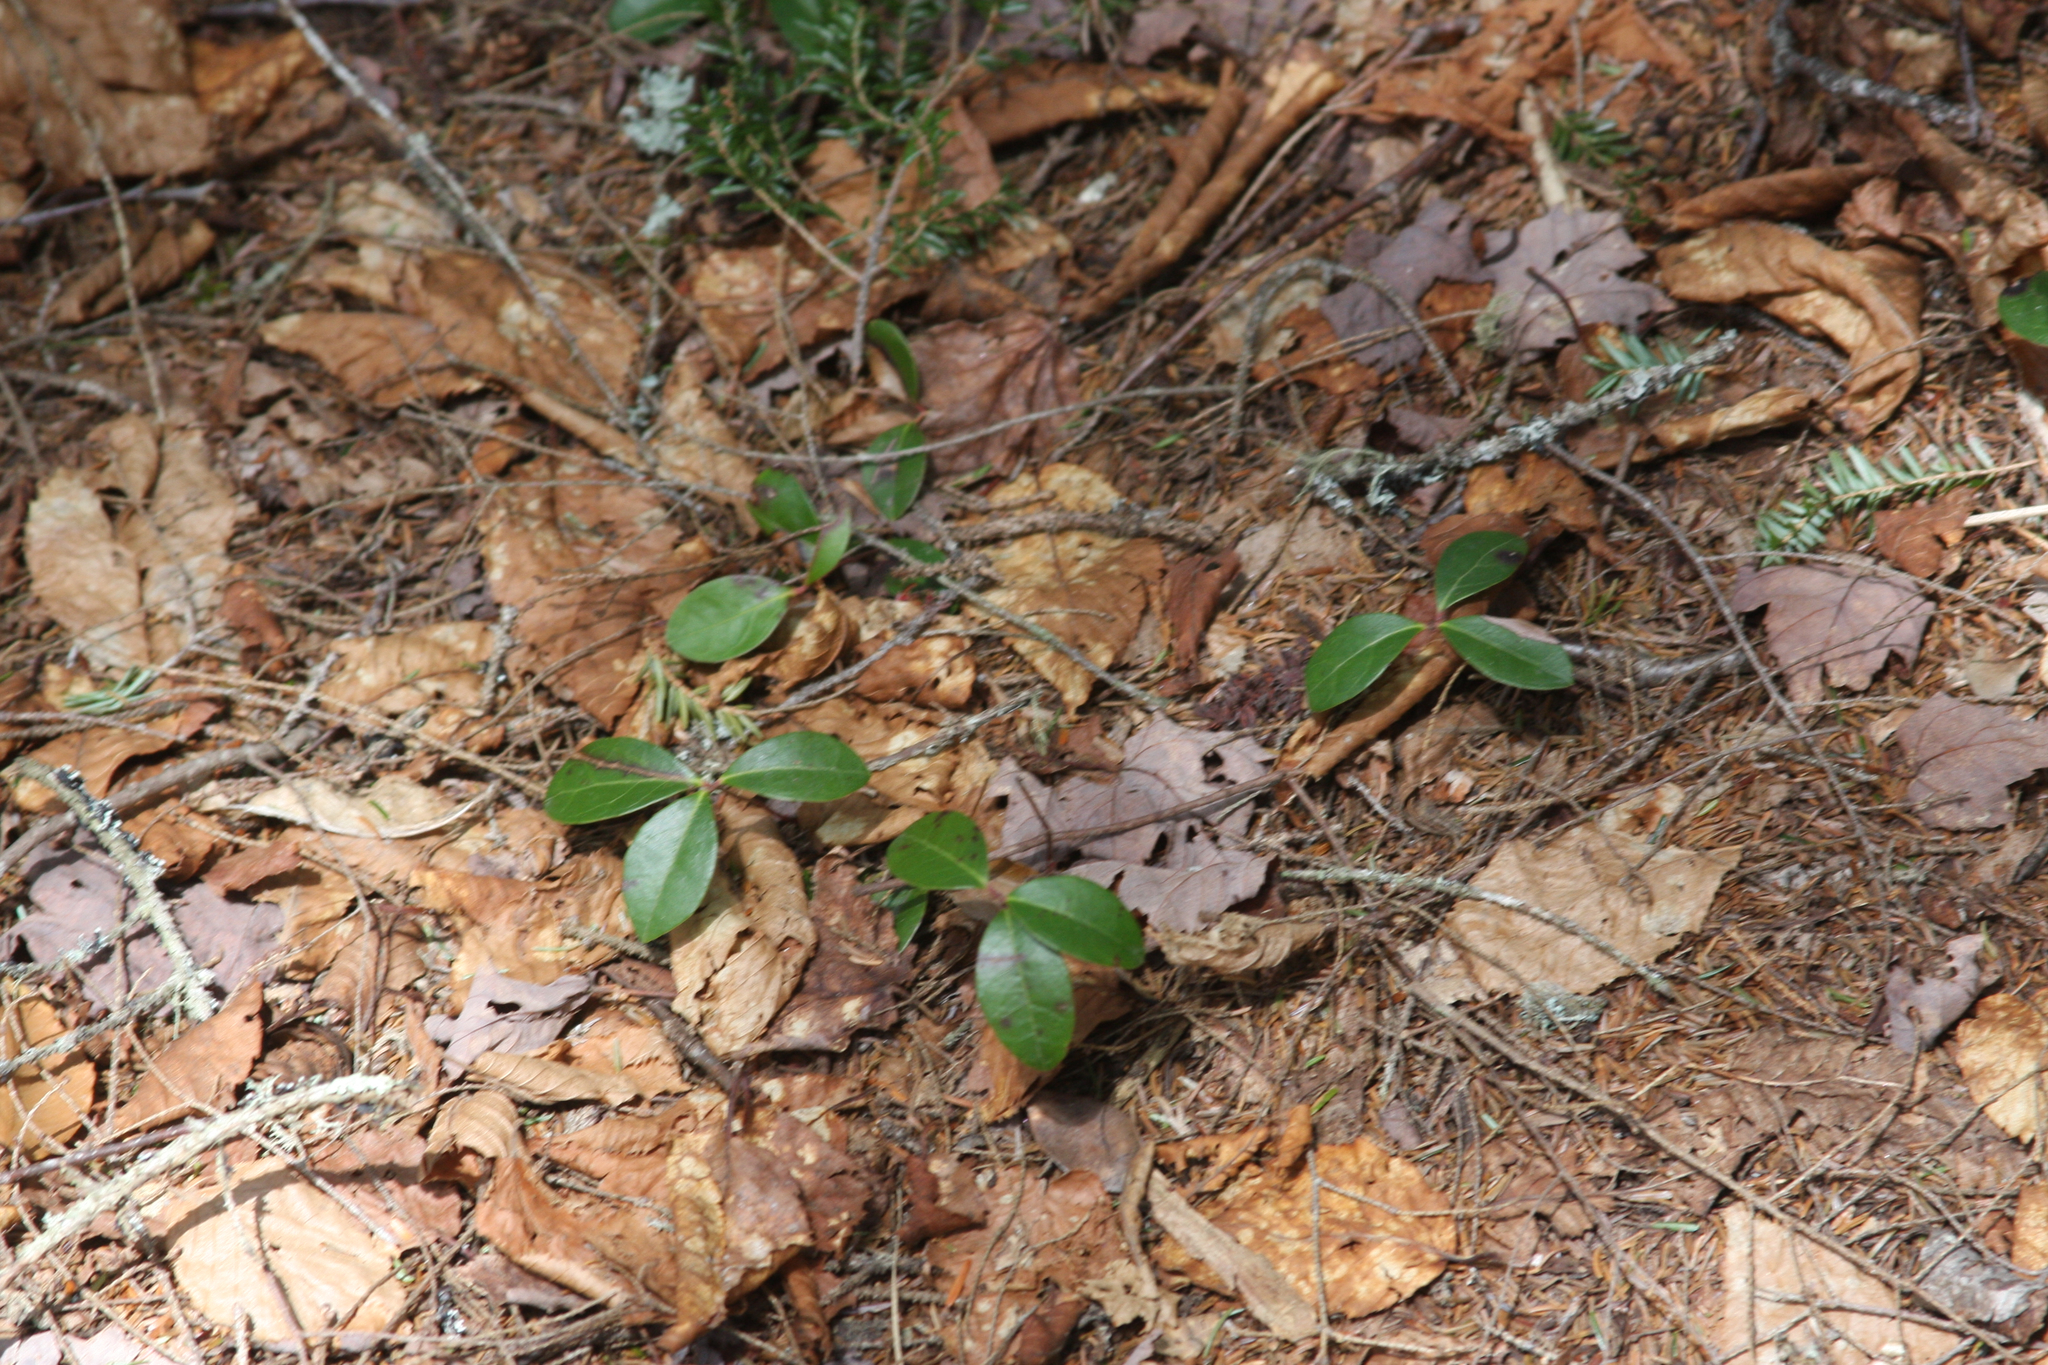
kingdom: Plantae
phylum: Tracheophyta
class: Magnoliopsida
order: Ericales
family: Ericaceae
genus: Gaultheria
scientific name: Gaultheria procumbens
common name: Checkerberry
